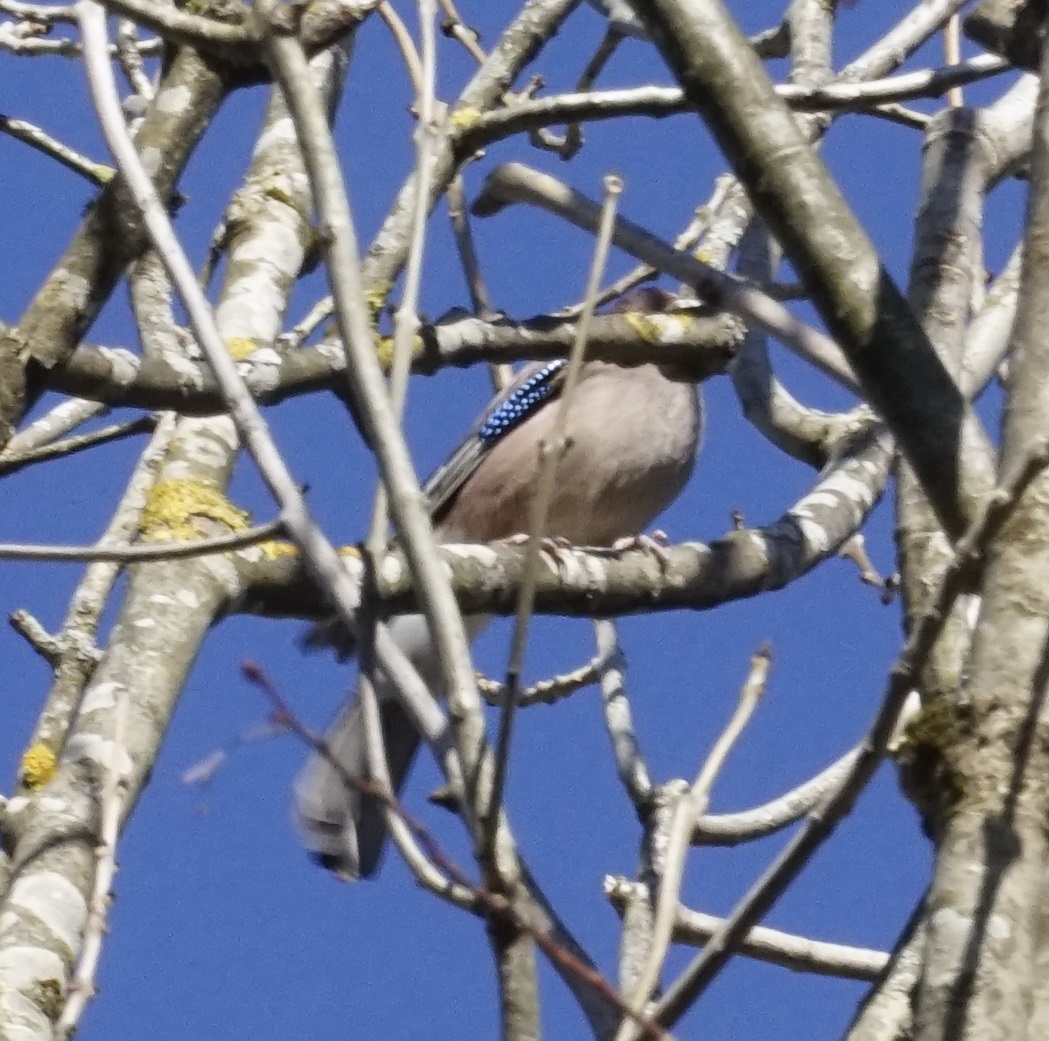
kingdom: Animalia
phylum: Chordata
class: Aves
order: Passeriformes
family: Corvidae
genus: Garrulus
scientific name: Garrulus glandarius
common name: Eurasian jay
